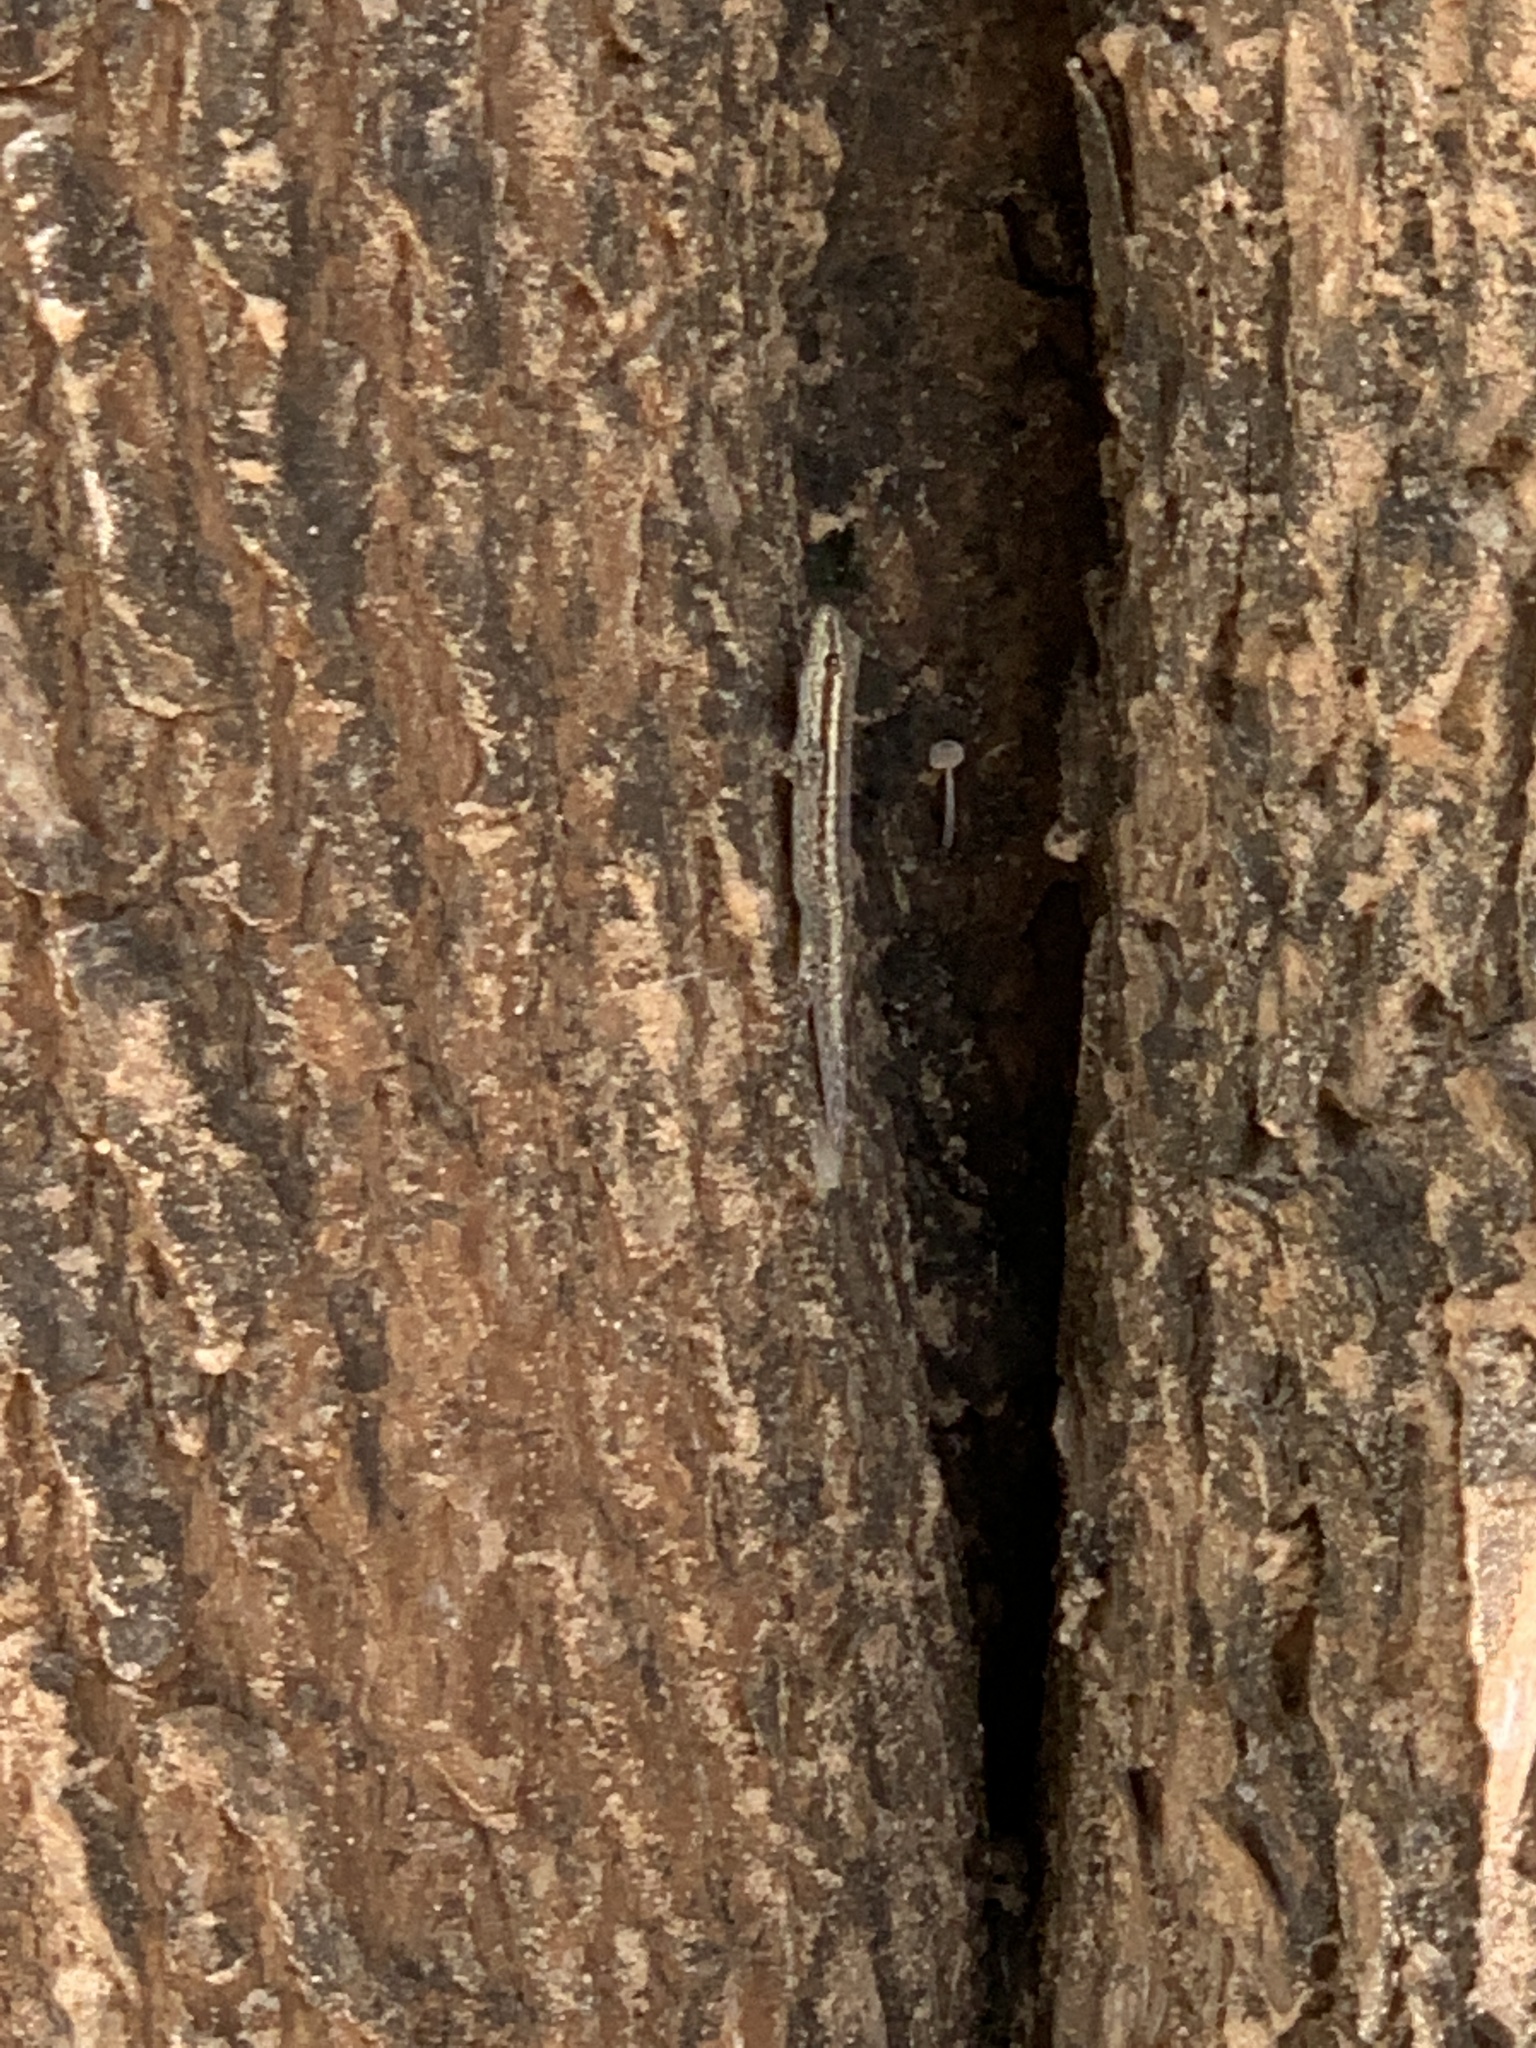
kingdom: Animalia
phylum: Chordata
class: Squamata
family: Gekkonidae
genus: Lygodactylus
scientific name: Lygodactylus capensis
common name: Cape dwarf gecko
